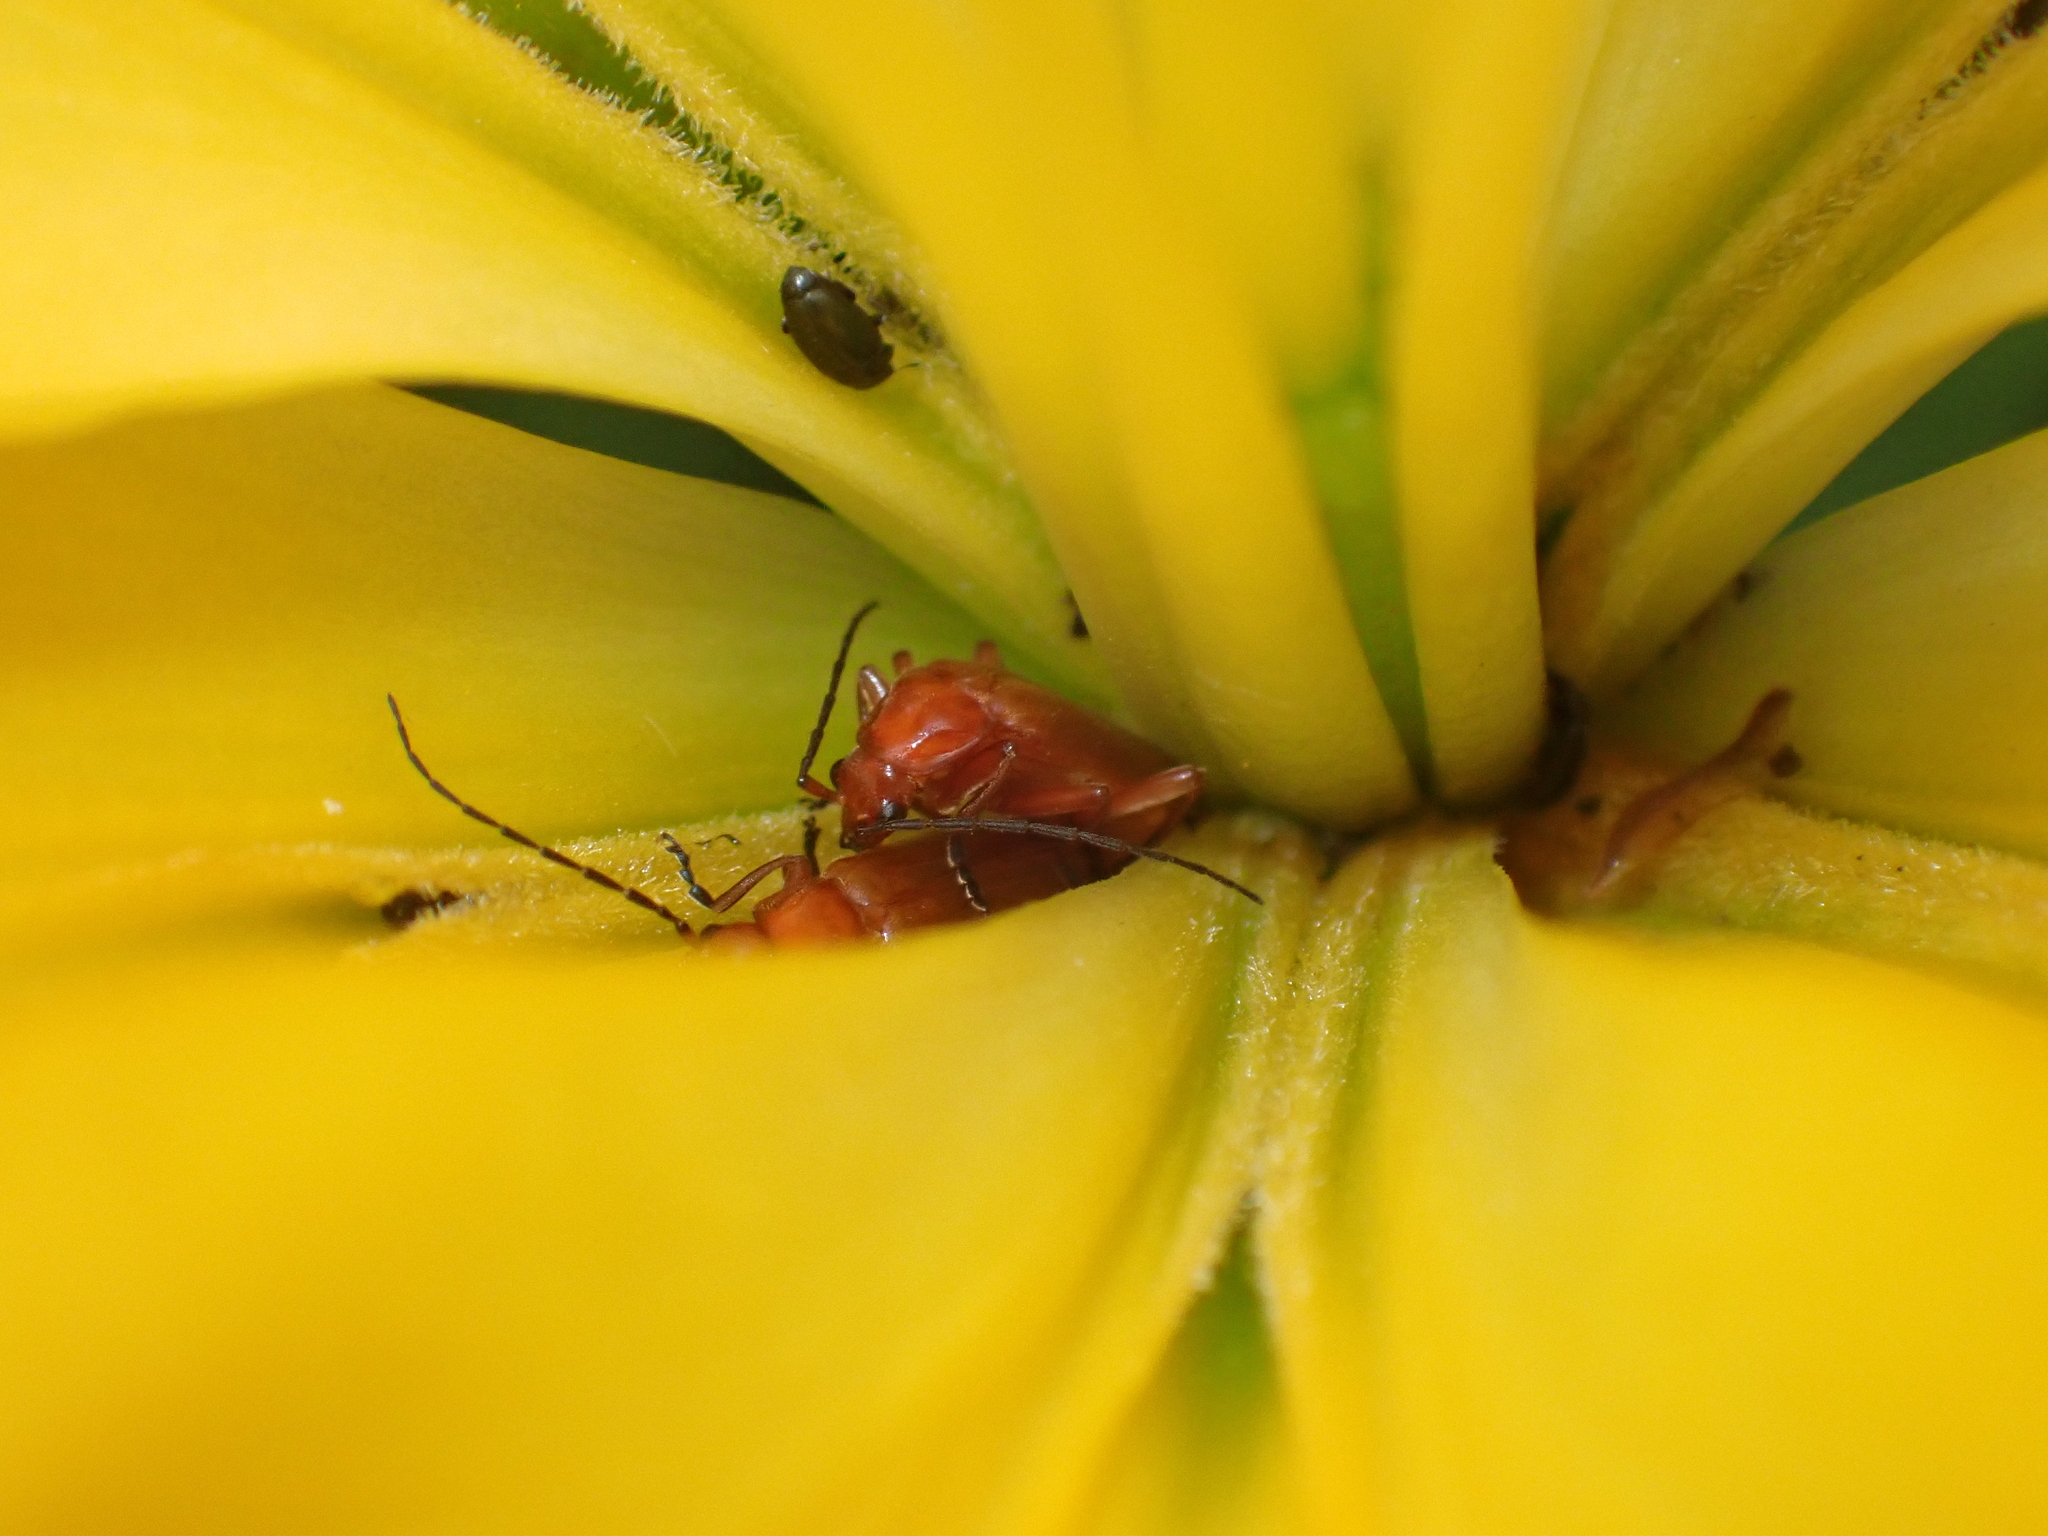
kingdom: Animalia
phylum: Arthropoda
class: Insecta
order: Coleoptera
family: Cantharidae
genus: Rhagonycha
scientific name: Rhagonycha fulva
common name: Common red soldier beetle
